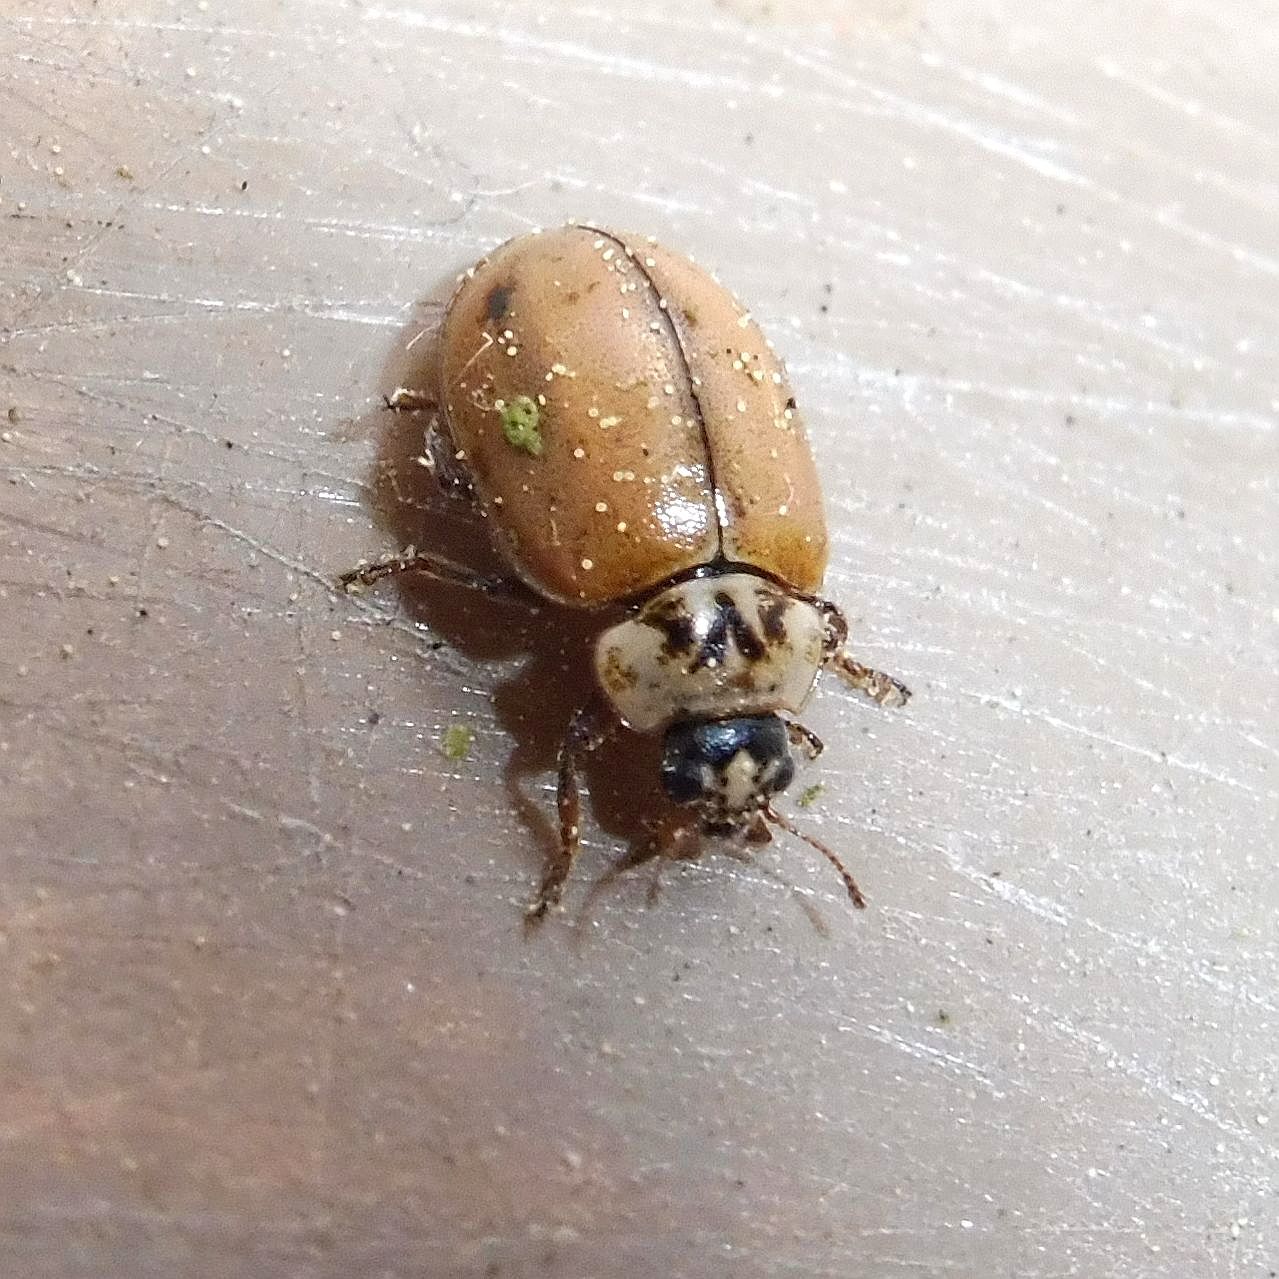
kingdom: Animalia
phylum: Arthropoda
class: Insecta
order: Coleoptera
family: Coccinellidae
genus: Aphidecta
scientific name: Aphidecta obliterata
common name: Larch ladybird
